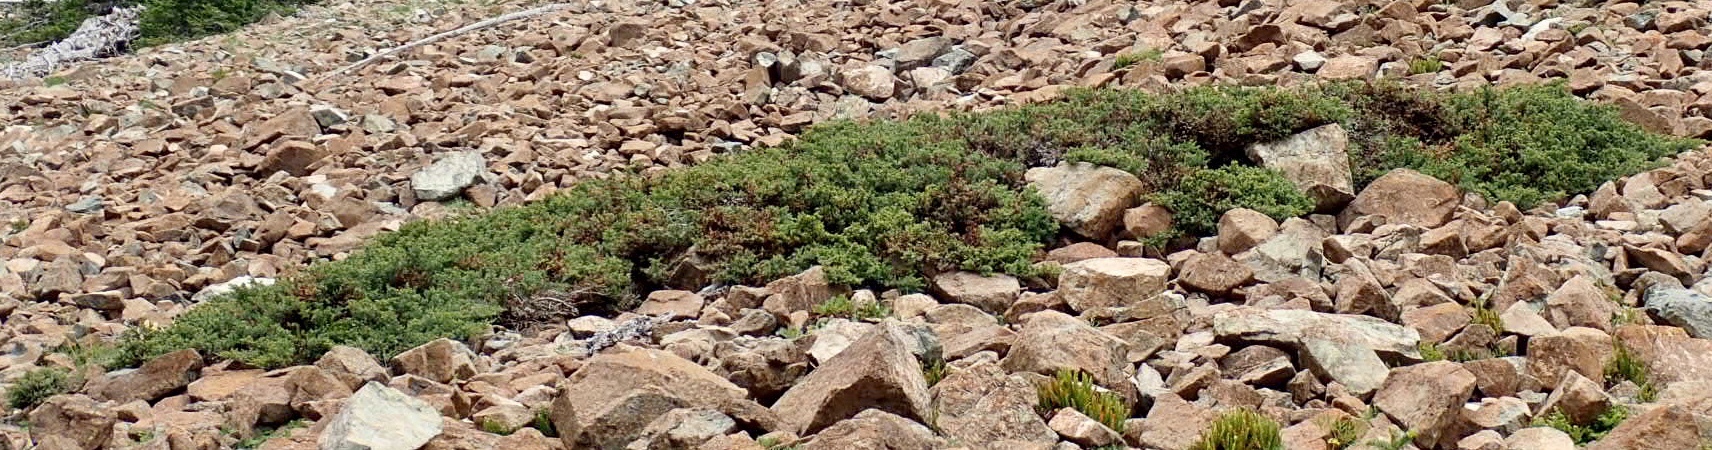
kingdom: Plantae
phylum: Tracheophyta
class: Pinopsida
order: Pinales
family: Cupressaceae
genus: Juniperus
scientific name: Juniperus communis
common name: Common juniper
